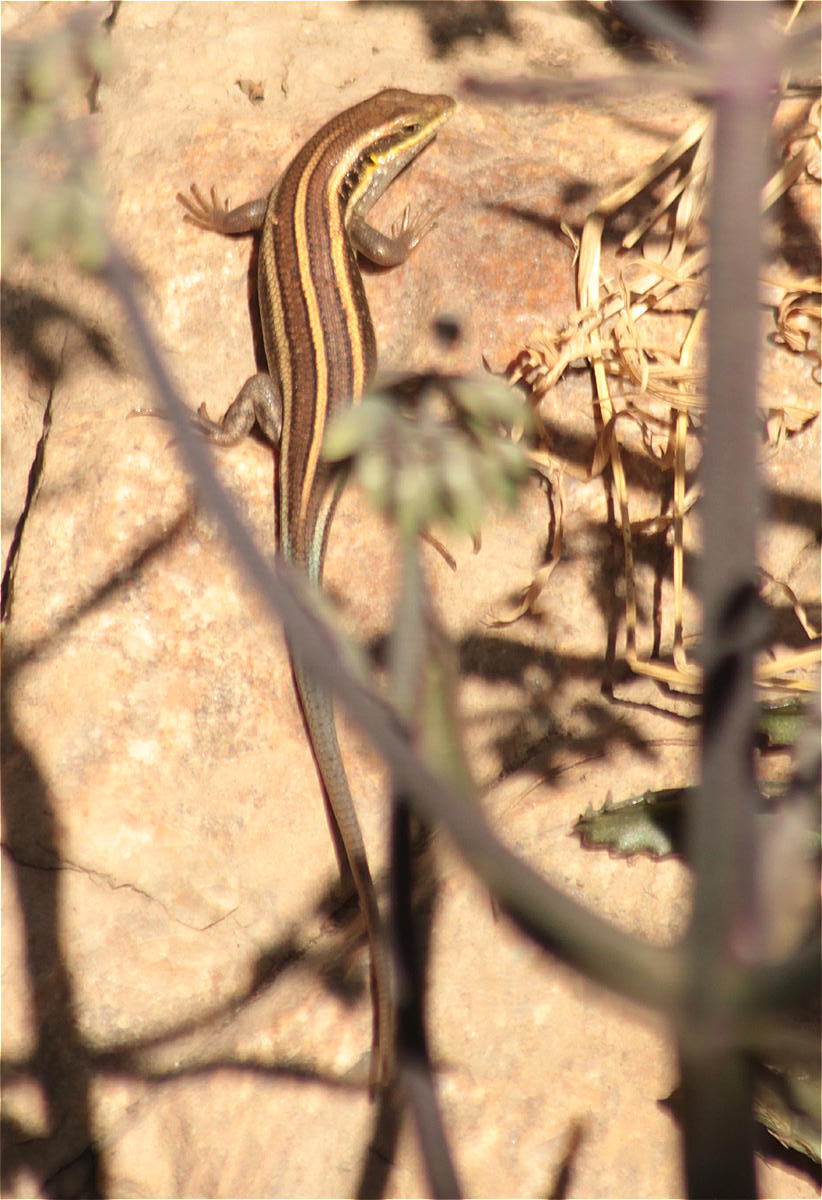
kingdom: Animalia
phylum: Chordata
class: Squamata
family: Scincidae
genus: Trachylepis
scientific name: Trachylepis quinquetaeniata
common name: African five-lined skink
